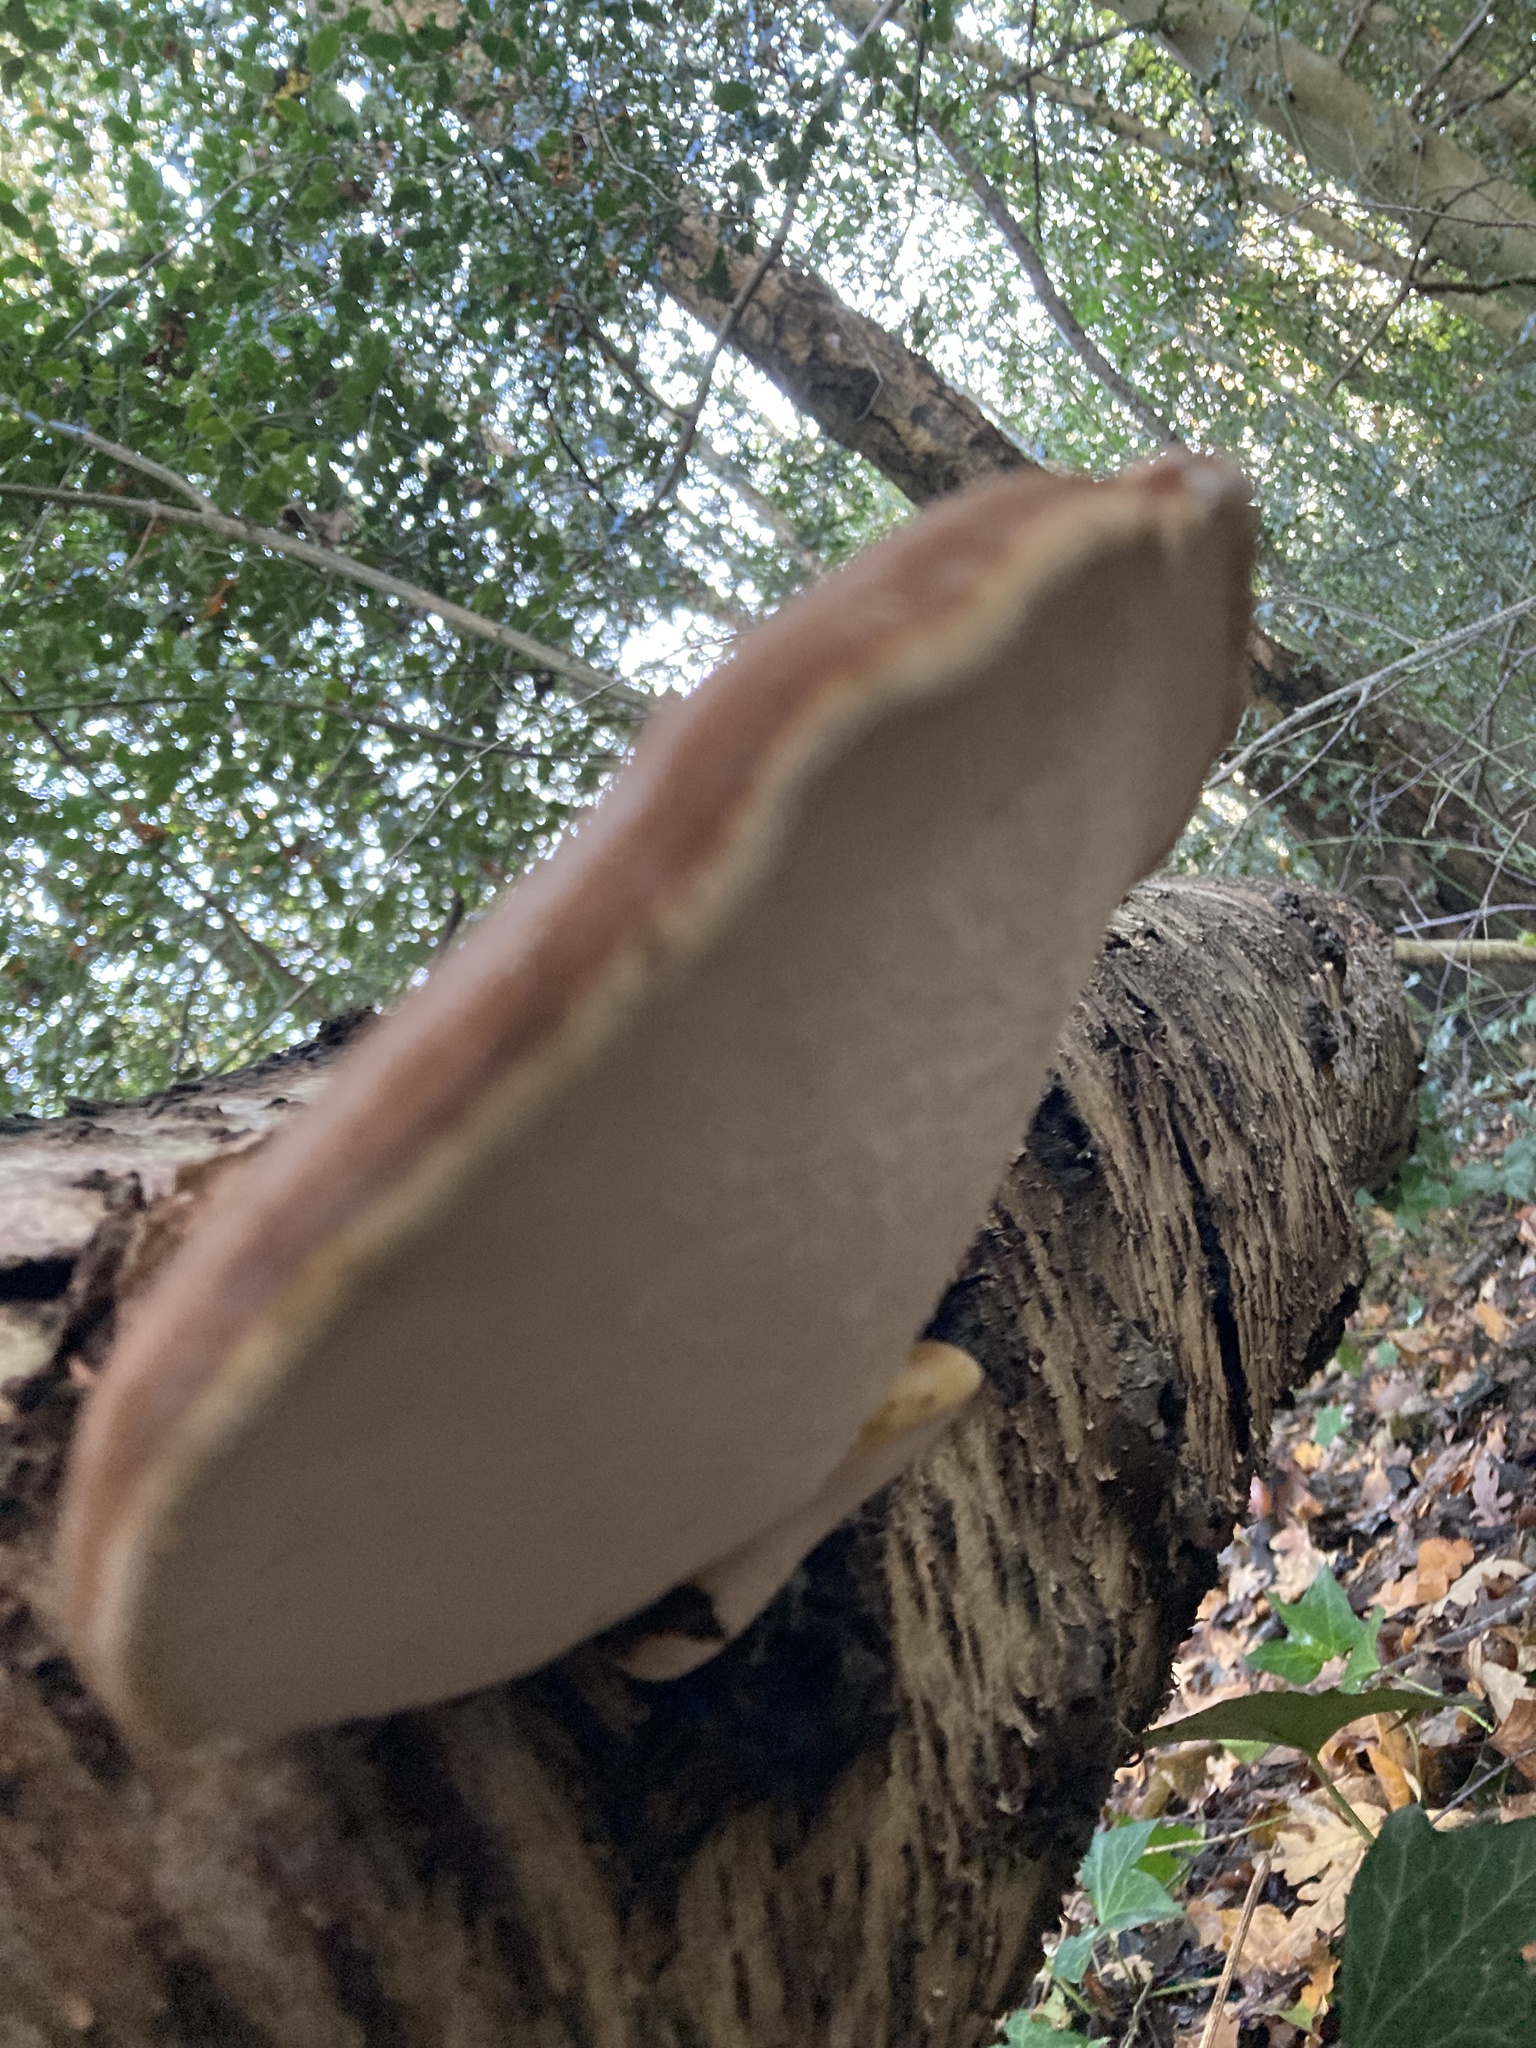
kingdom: Fungi
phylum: Basidiomycota
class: Agaricomycetes
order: Polyporales
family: Fomitopsidaceae
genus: Fomitopsis
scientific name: Fomitopsis betulina
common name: Birch polypore
